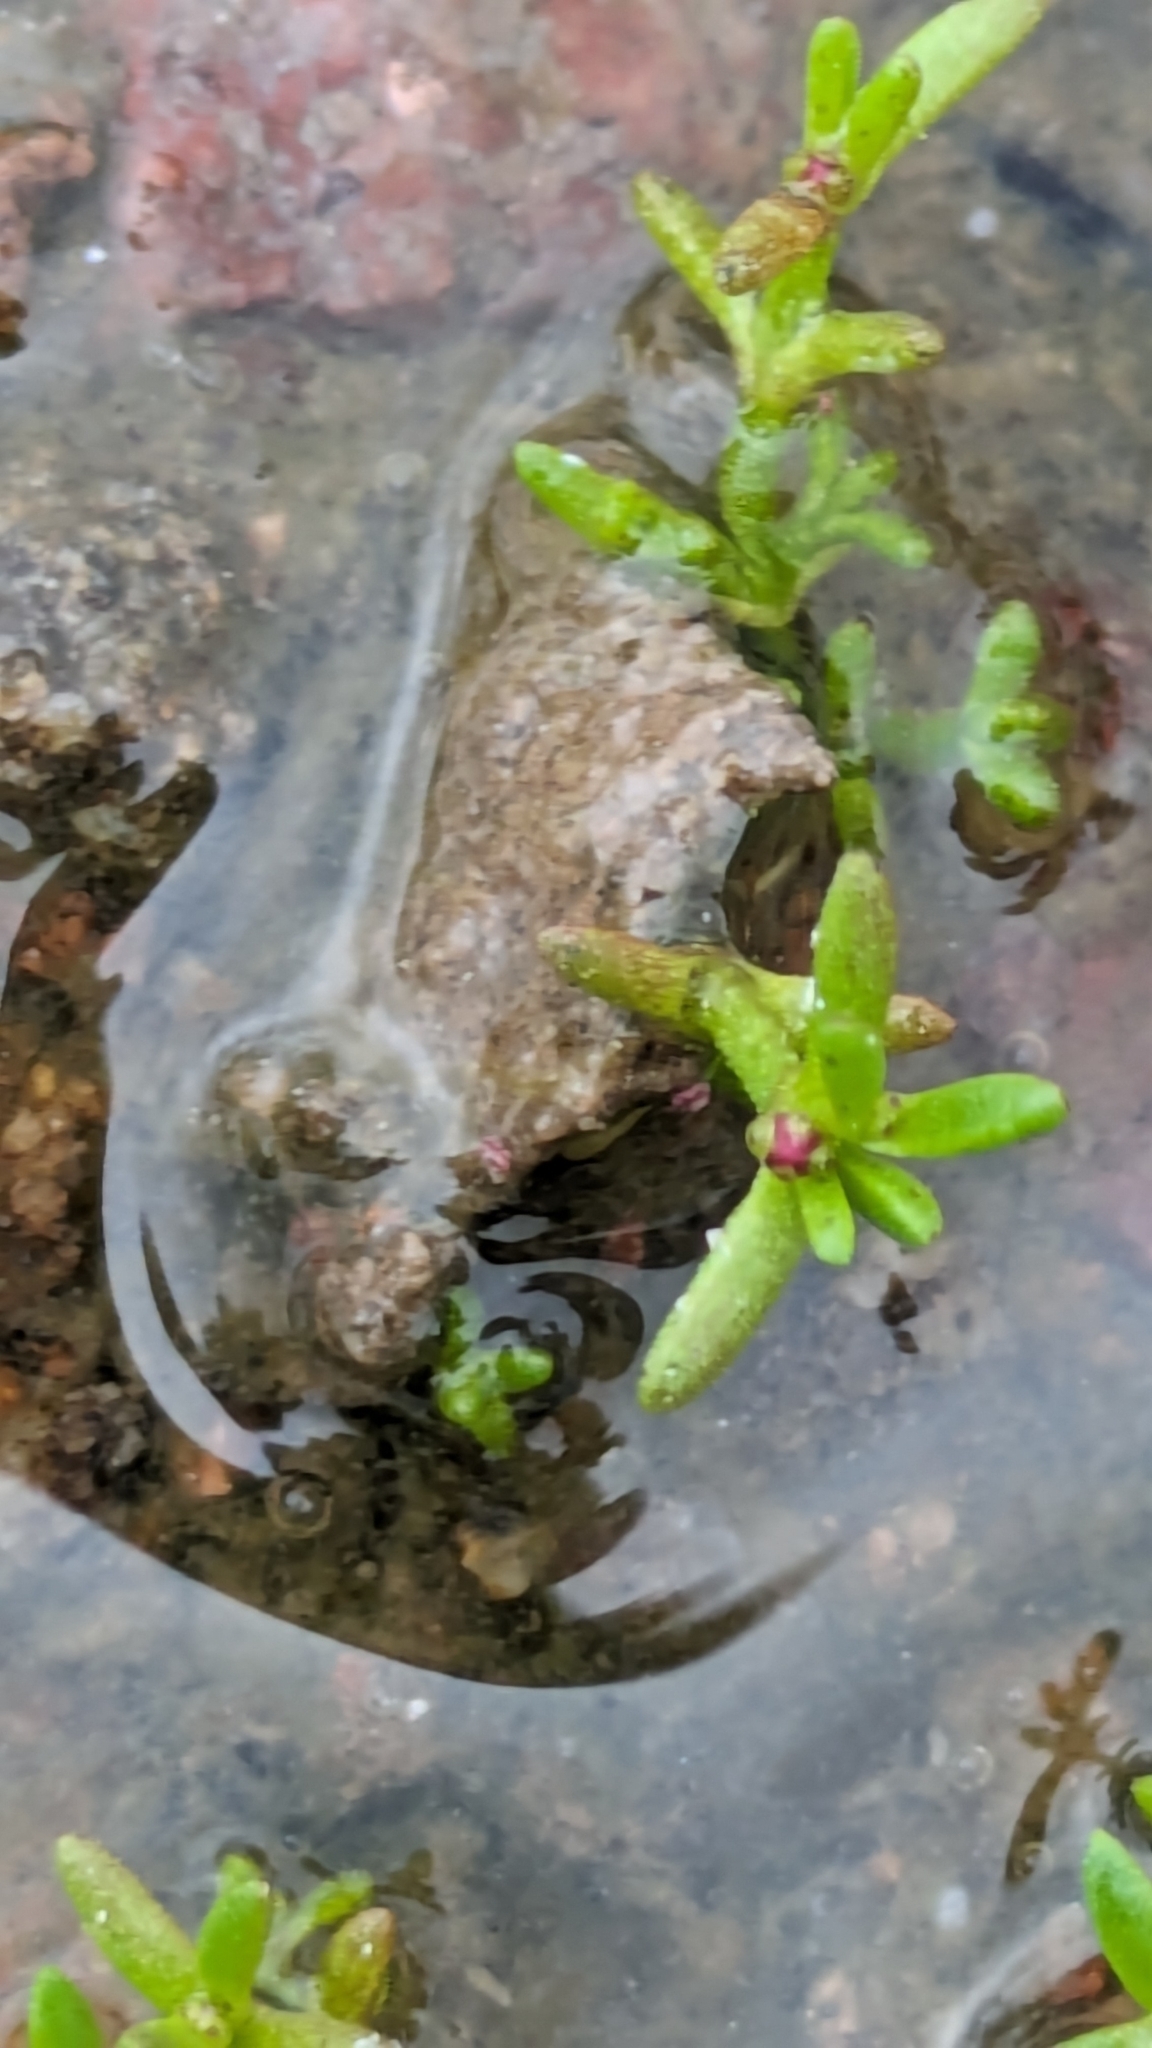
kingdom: Plantae
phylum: Tracheophyta
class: Magnoliopsida
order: Saxifragales
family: Crassulaceae
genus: Crassula
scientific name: Crassula aquatica
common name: Pigmyweed
